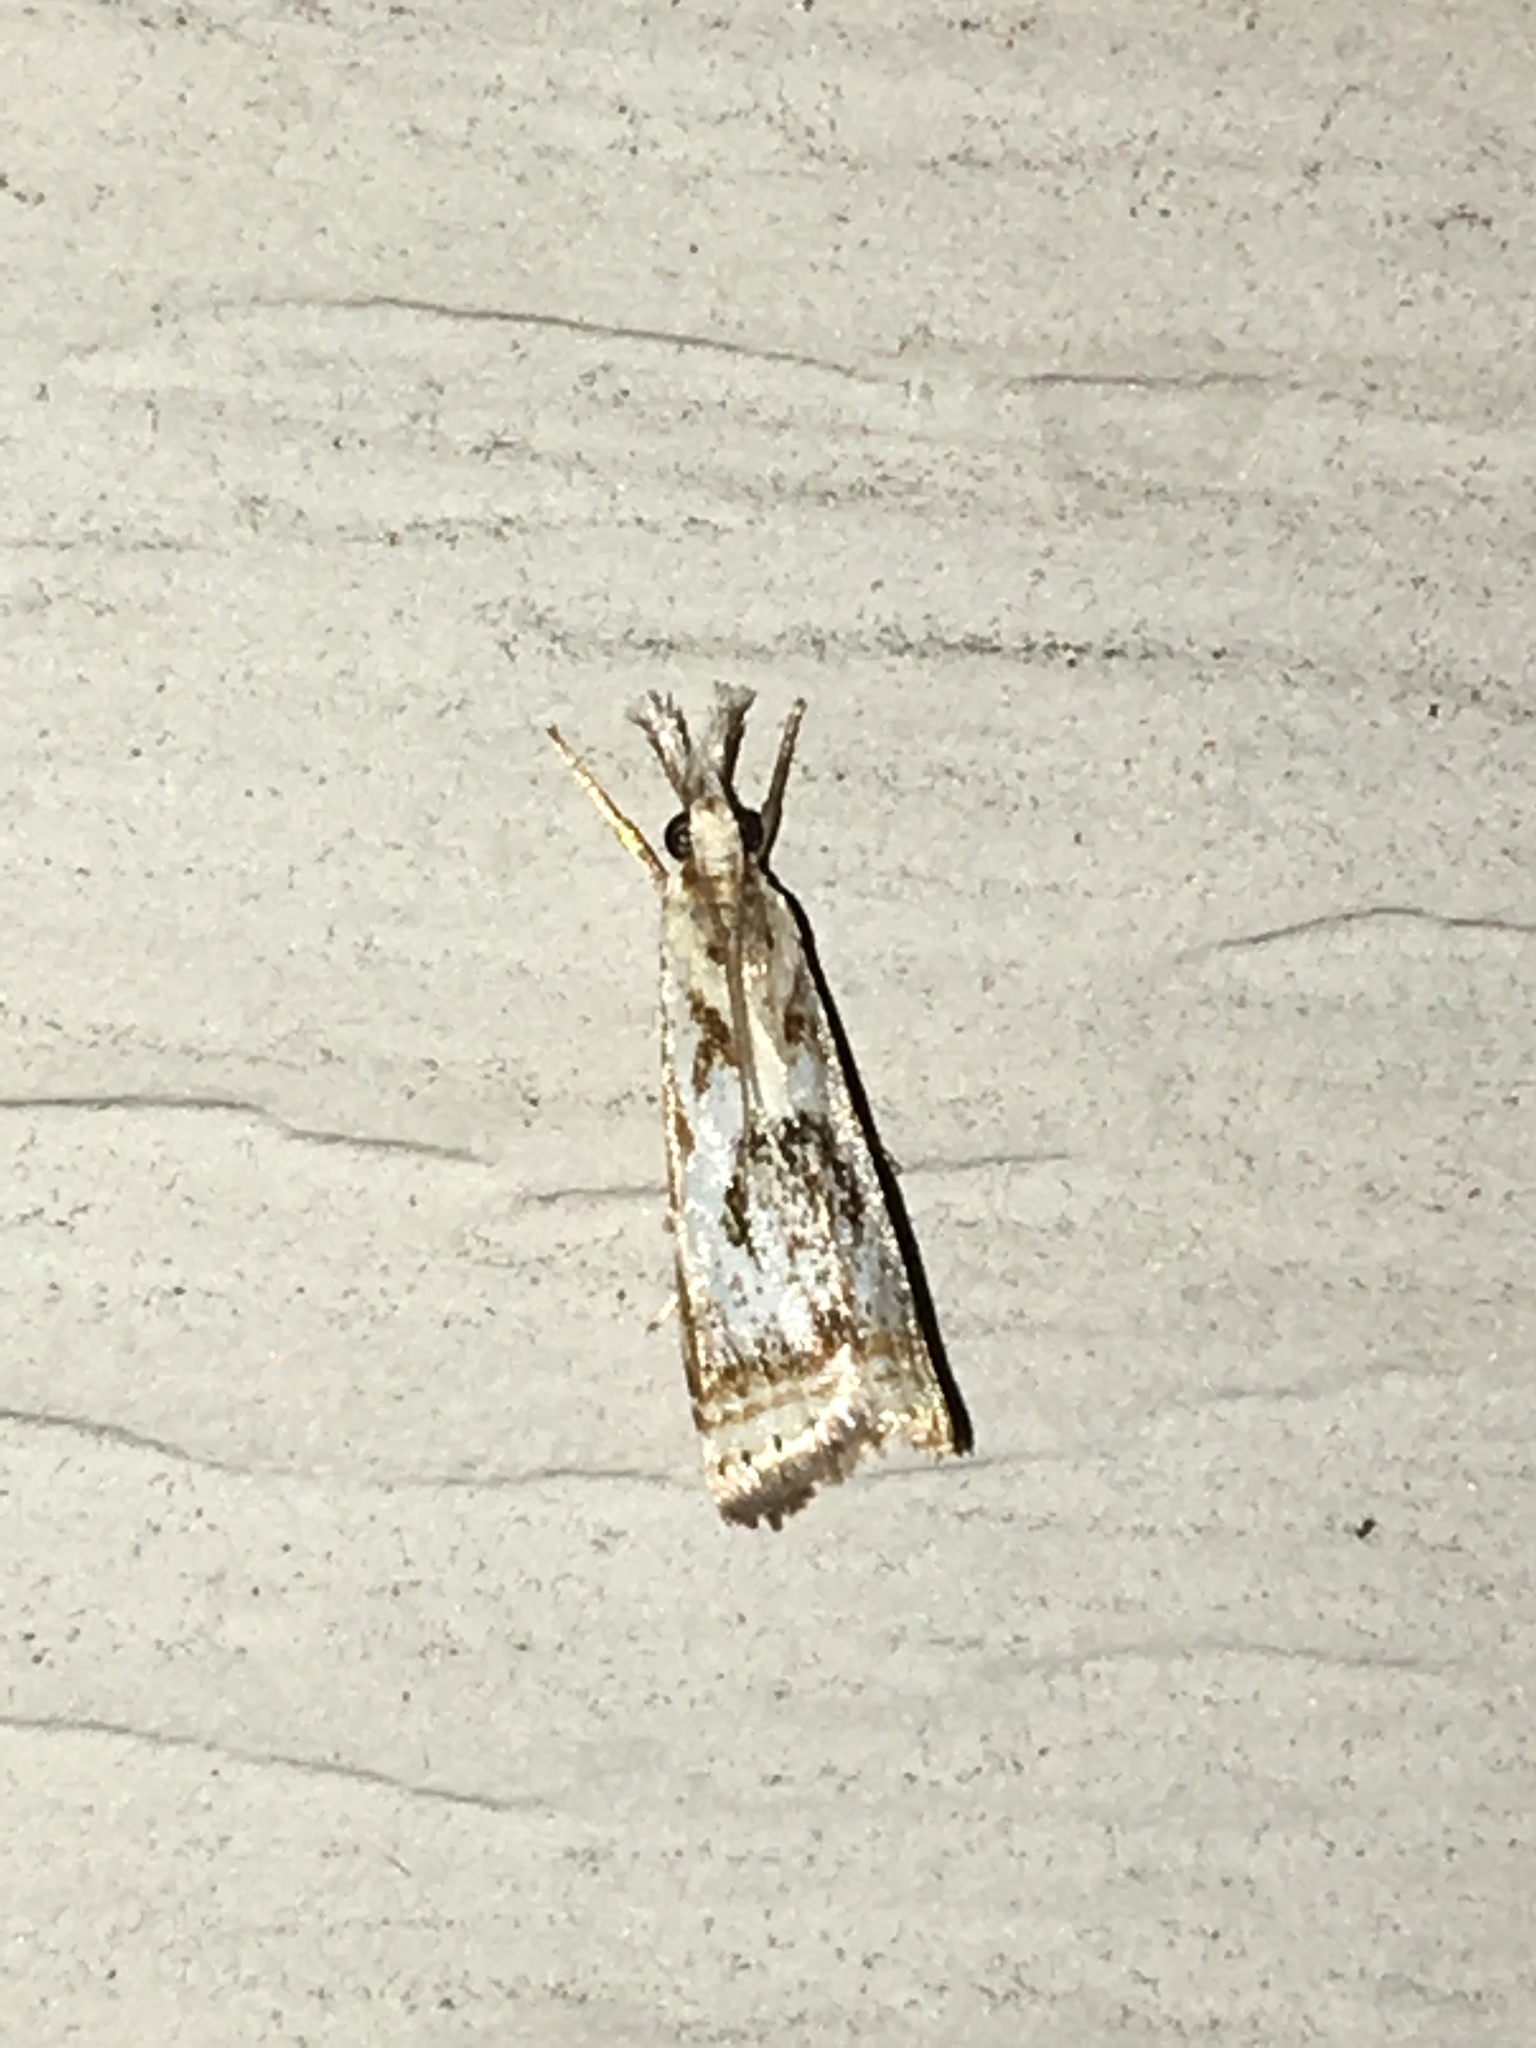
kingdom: Animalia
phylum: Arthropoda
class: Insecta
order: Lepidoptera
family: Crambidae
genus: Microcrambus
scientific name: Microcrambus elegans
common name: Elegant grass-veneer
